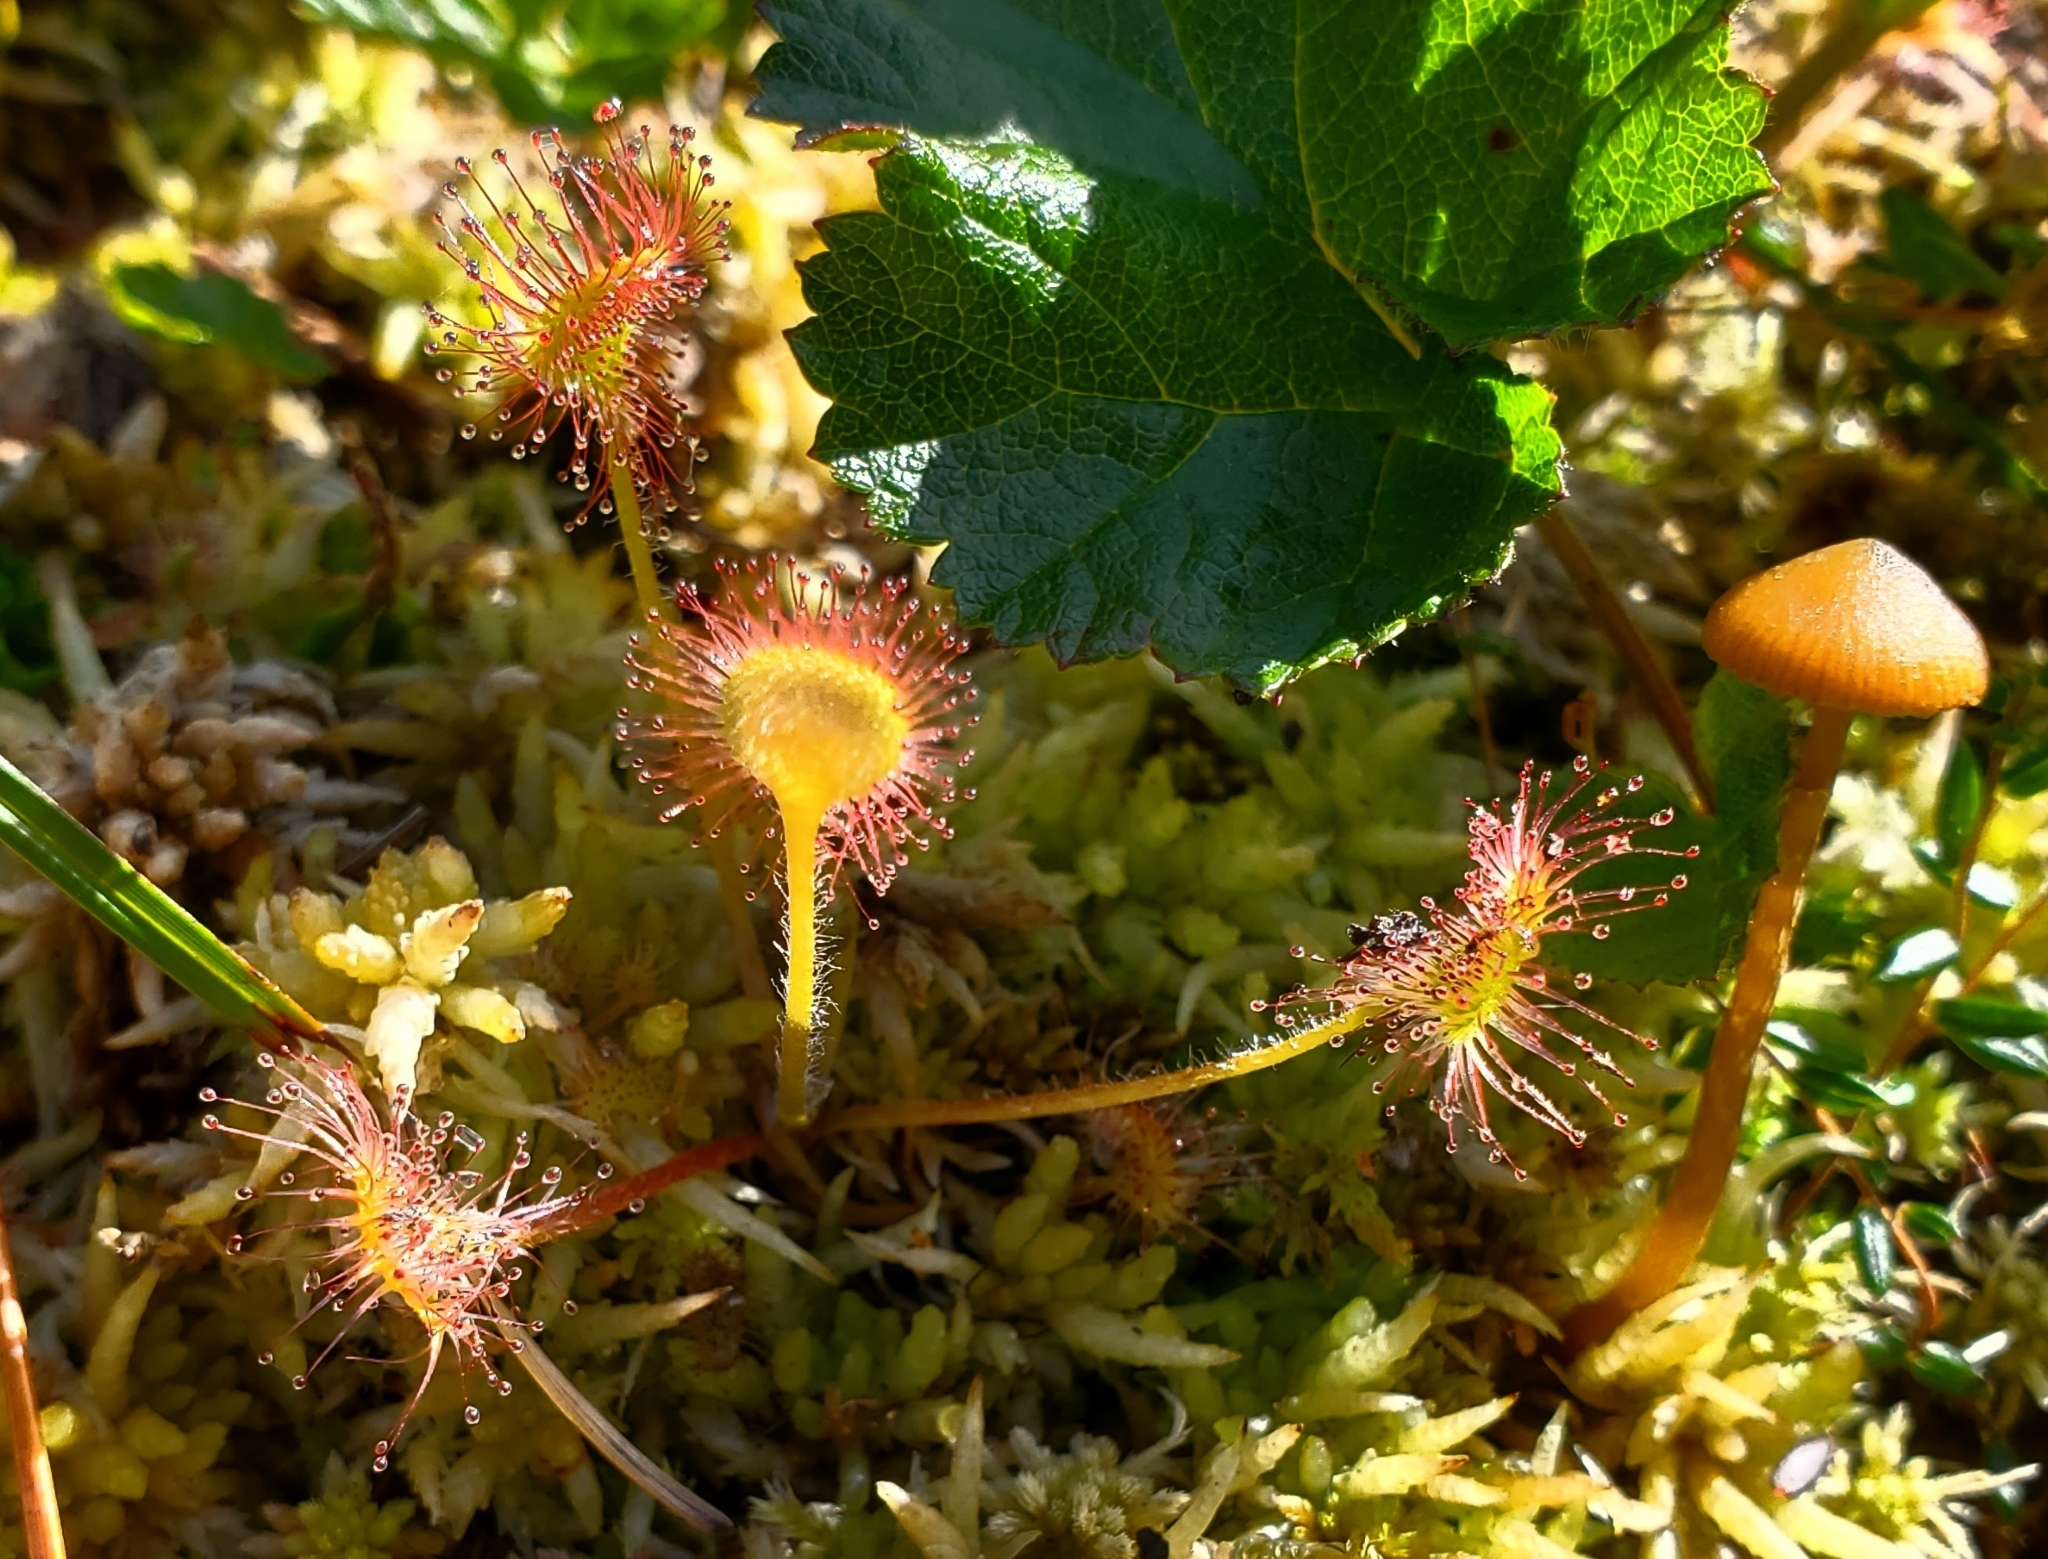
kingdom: Plantae
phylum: Tracheophyta
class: Magnoliopsida
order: Caryophyllales
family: Droseraceae
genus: Drosera
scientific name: Drosera rotundifolia
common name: Round-leaved sundew
